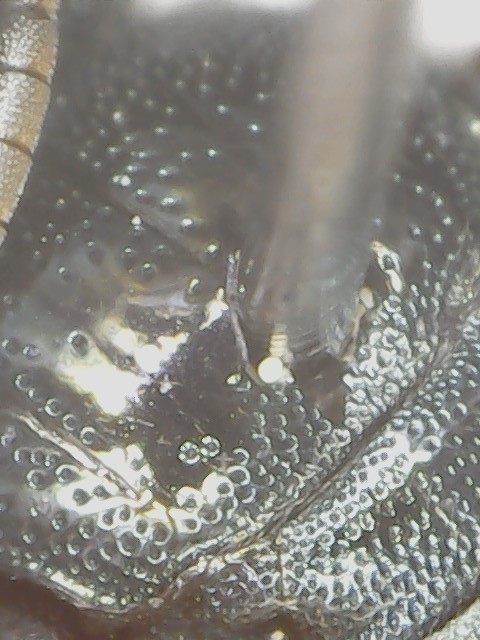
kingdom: Animalia
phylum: Arthropoda
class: Insecta
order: Hymenoptera
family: Apidae
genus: Ceratina
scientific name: Ceratina calcarata
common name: Spurred carpenter bee
